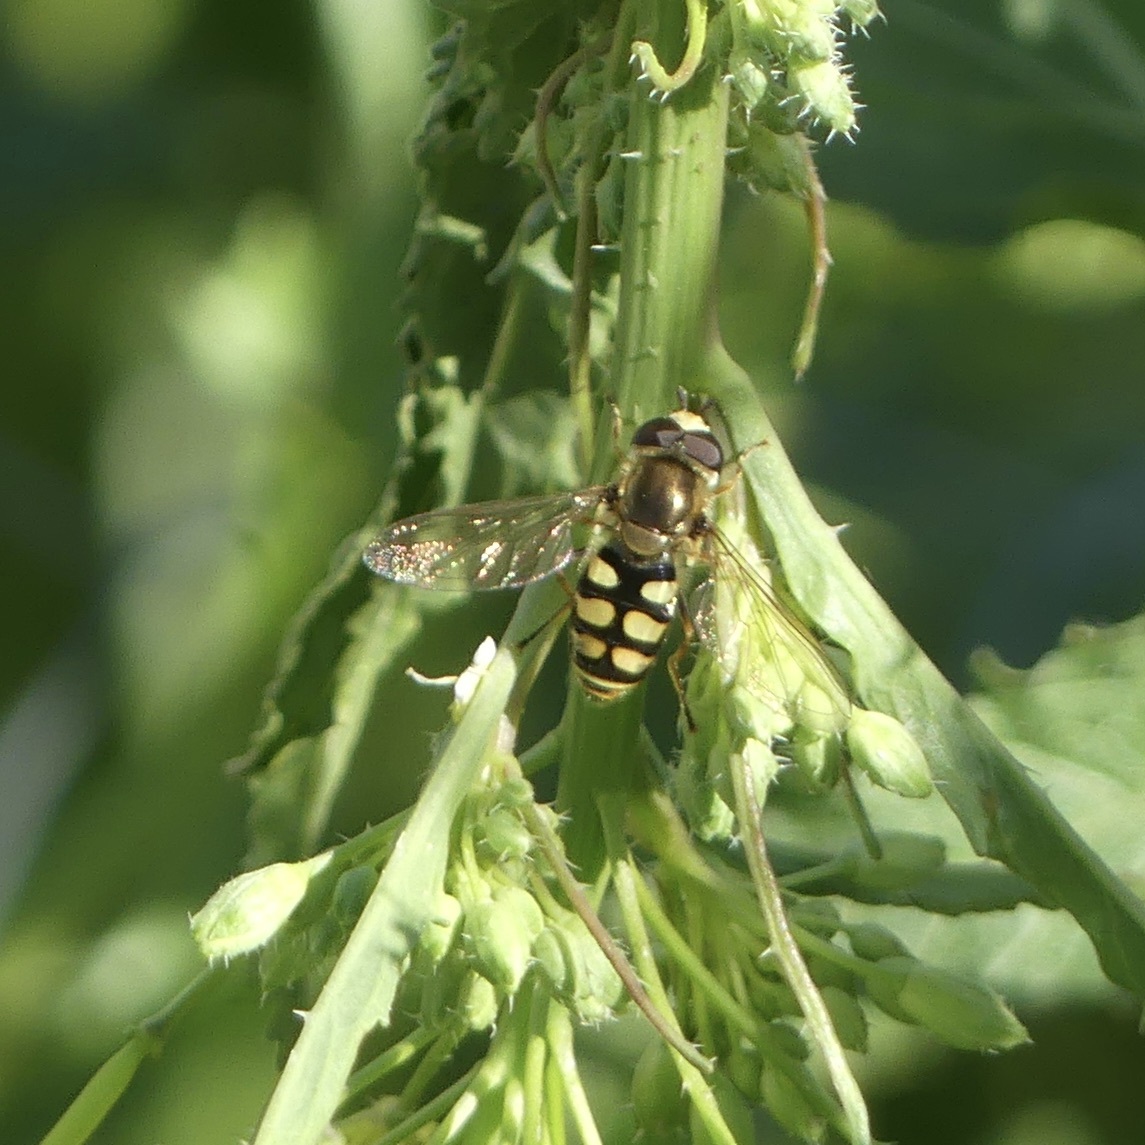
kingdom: Animalia
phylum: Arthropoda
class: Insecta
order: Diptera
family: Syrphidae
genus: Eupeodes
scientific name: Eupeodes corollae
